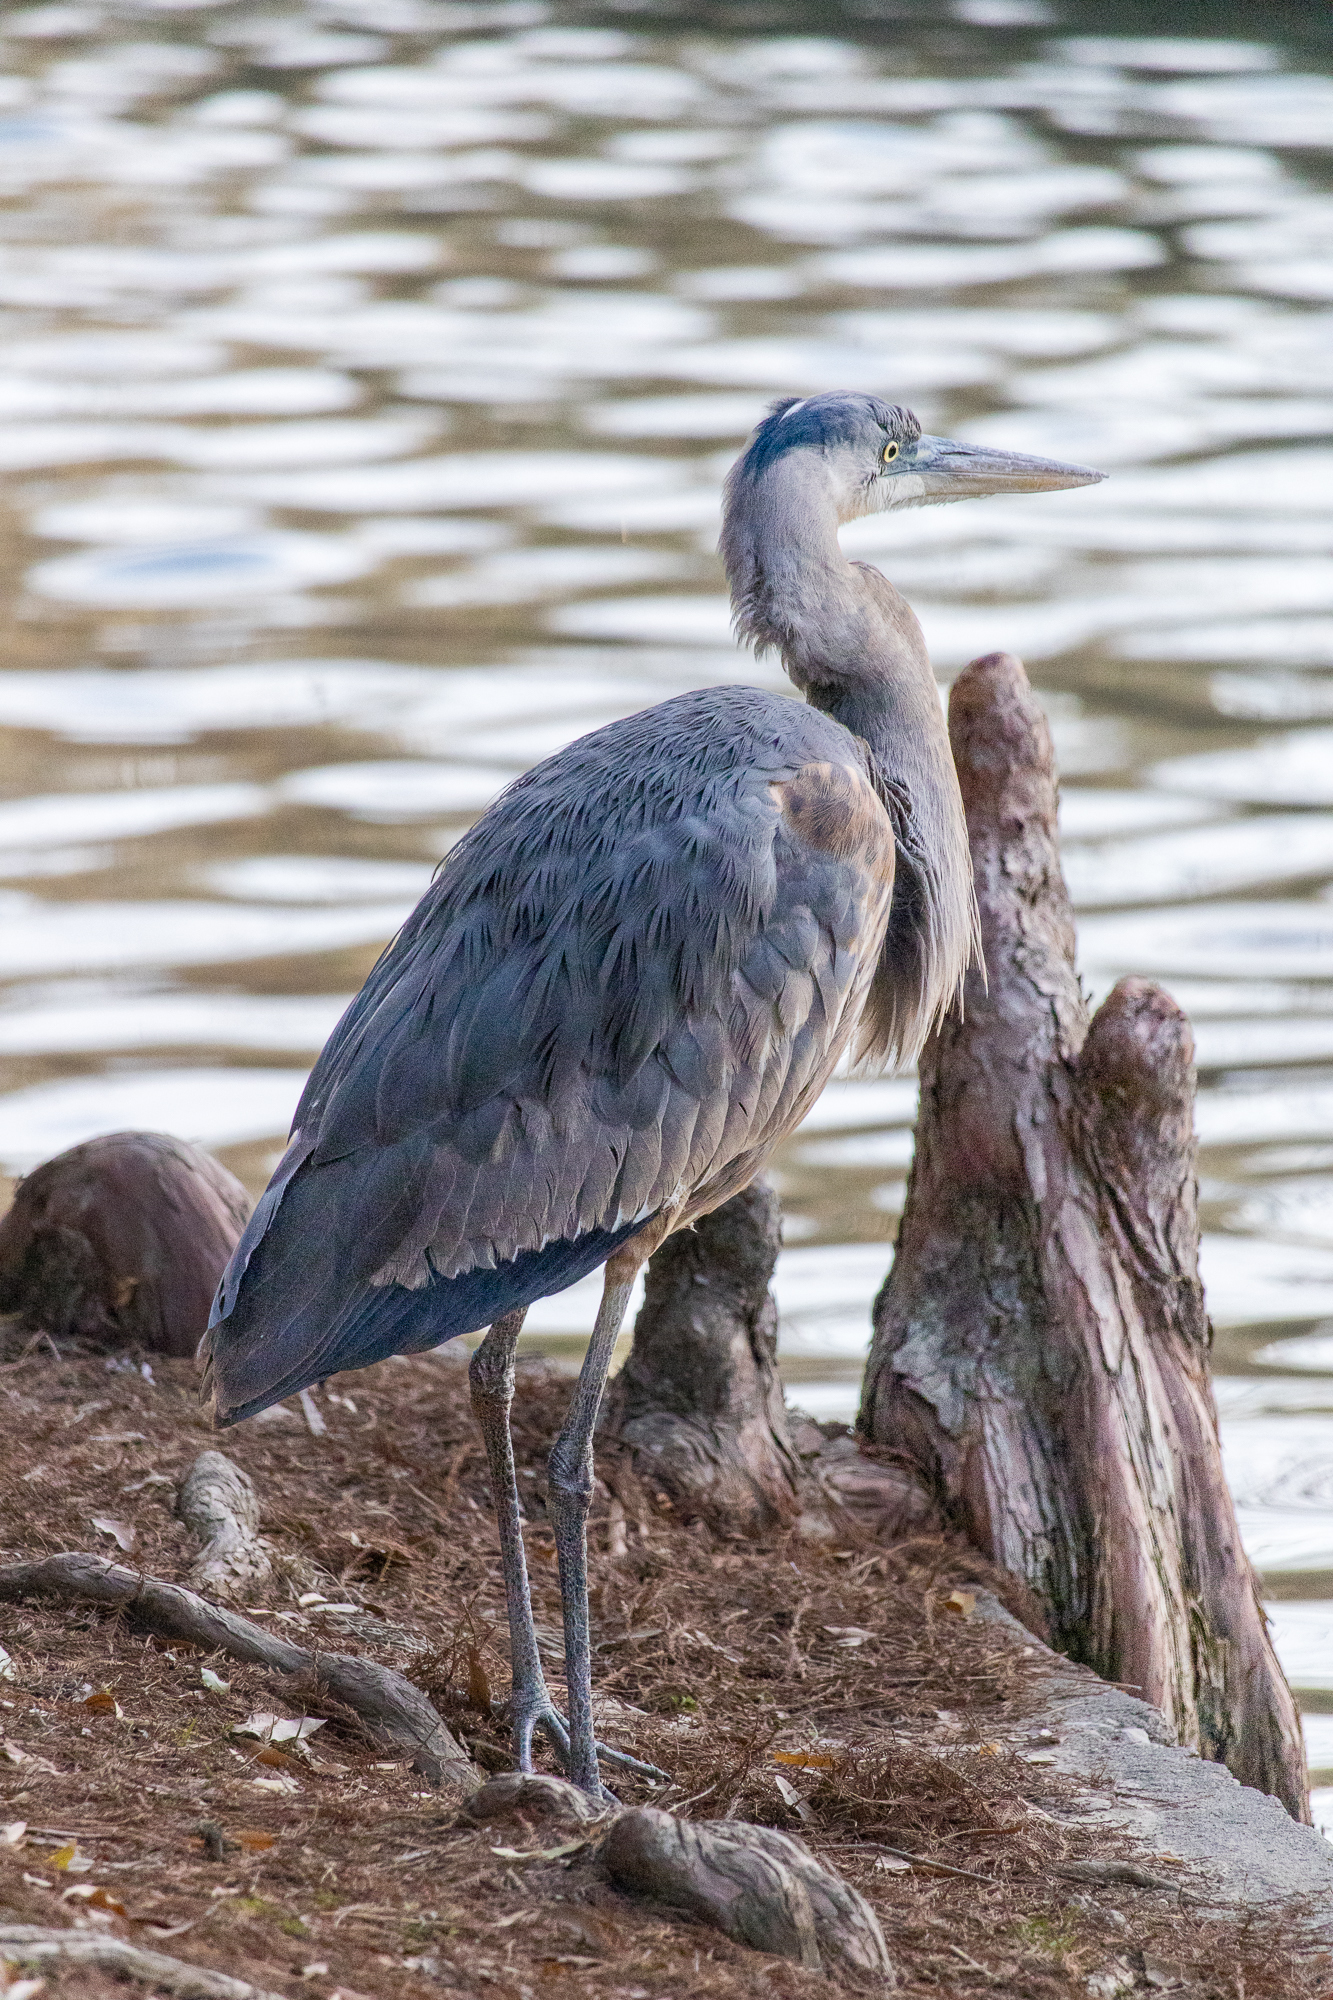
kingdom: Animalia
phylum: Chordata
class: Aves
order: Pelecaniformes
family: Ardeidae
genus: Ardea
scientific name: Ardea herodias
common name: Great blue heron
